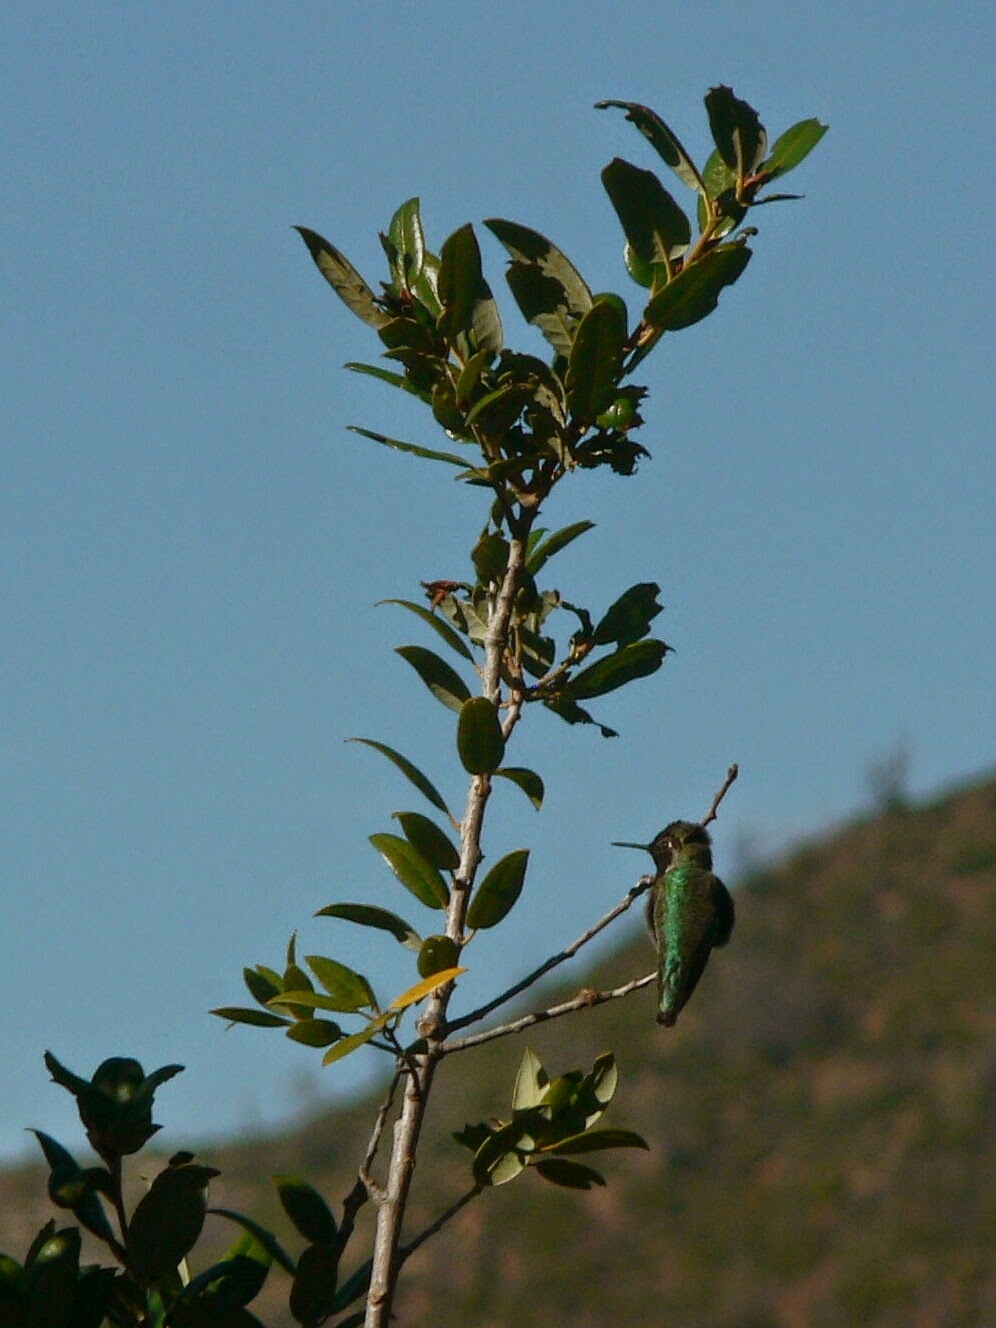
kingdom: Animalia
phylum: Chordata
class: Aves
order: Apodiformes
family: Trochilidae
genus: Calypte
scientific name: Calypte anna
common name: Anna's hummingbird
